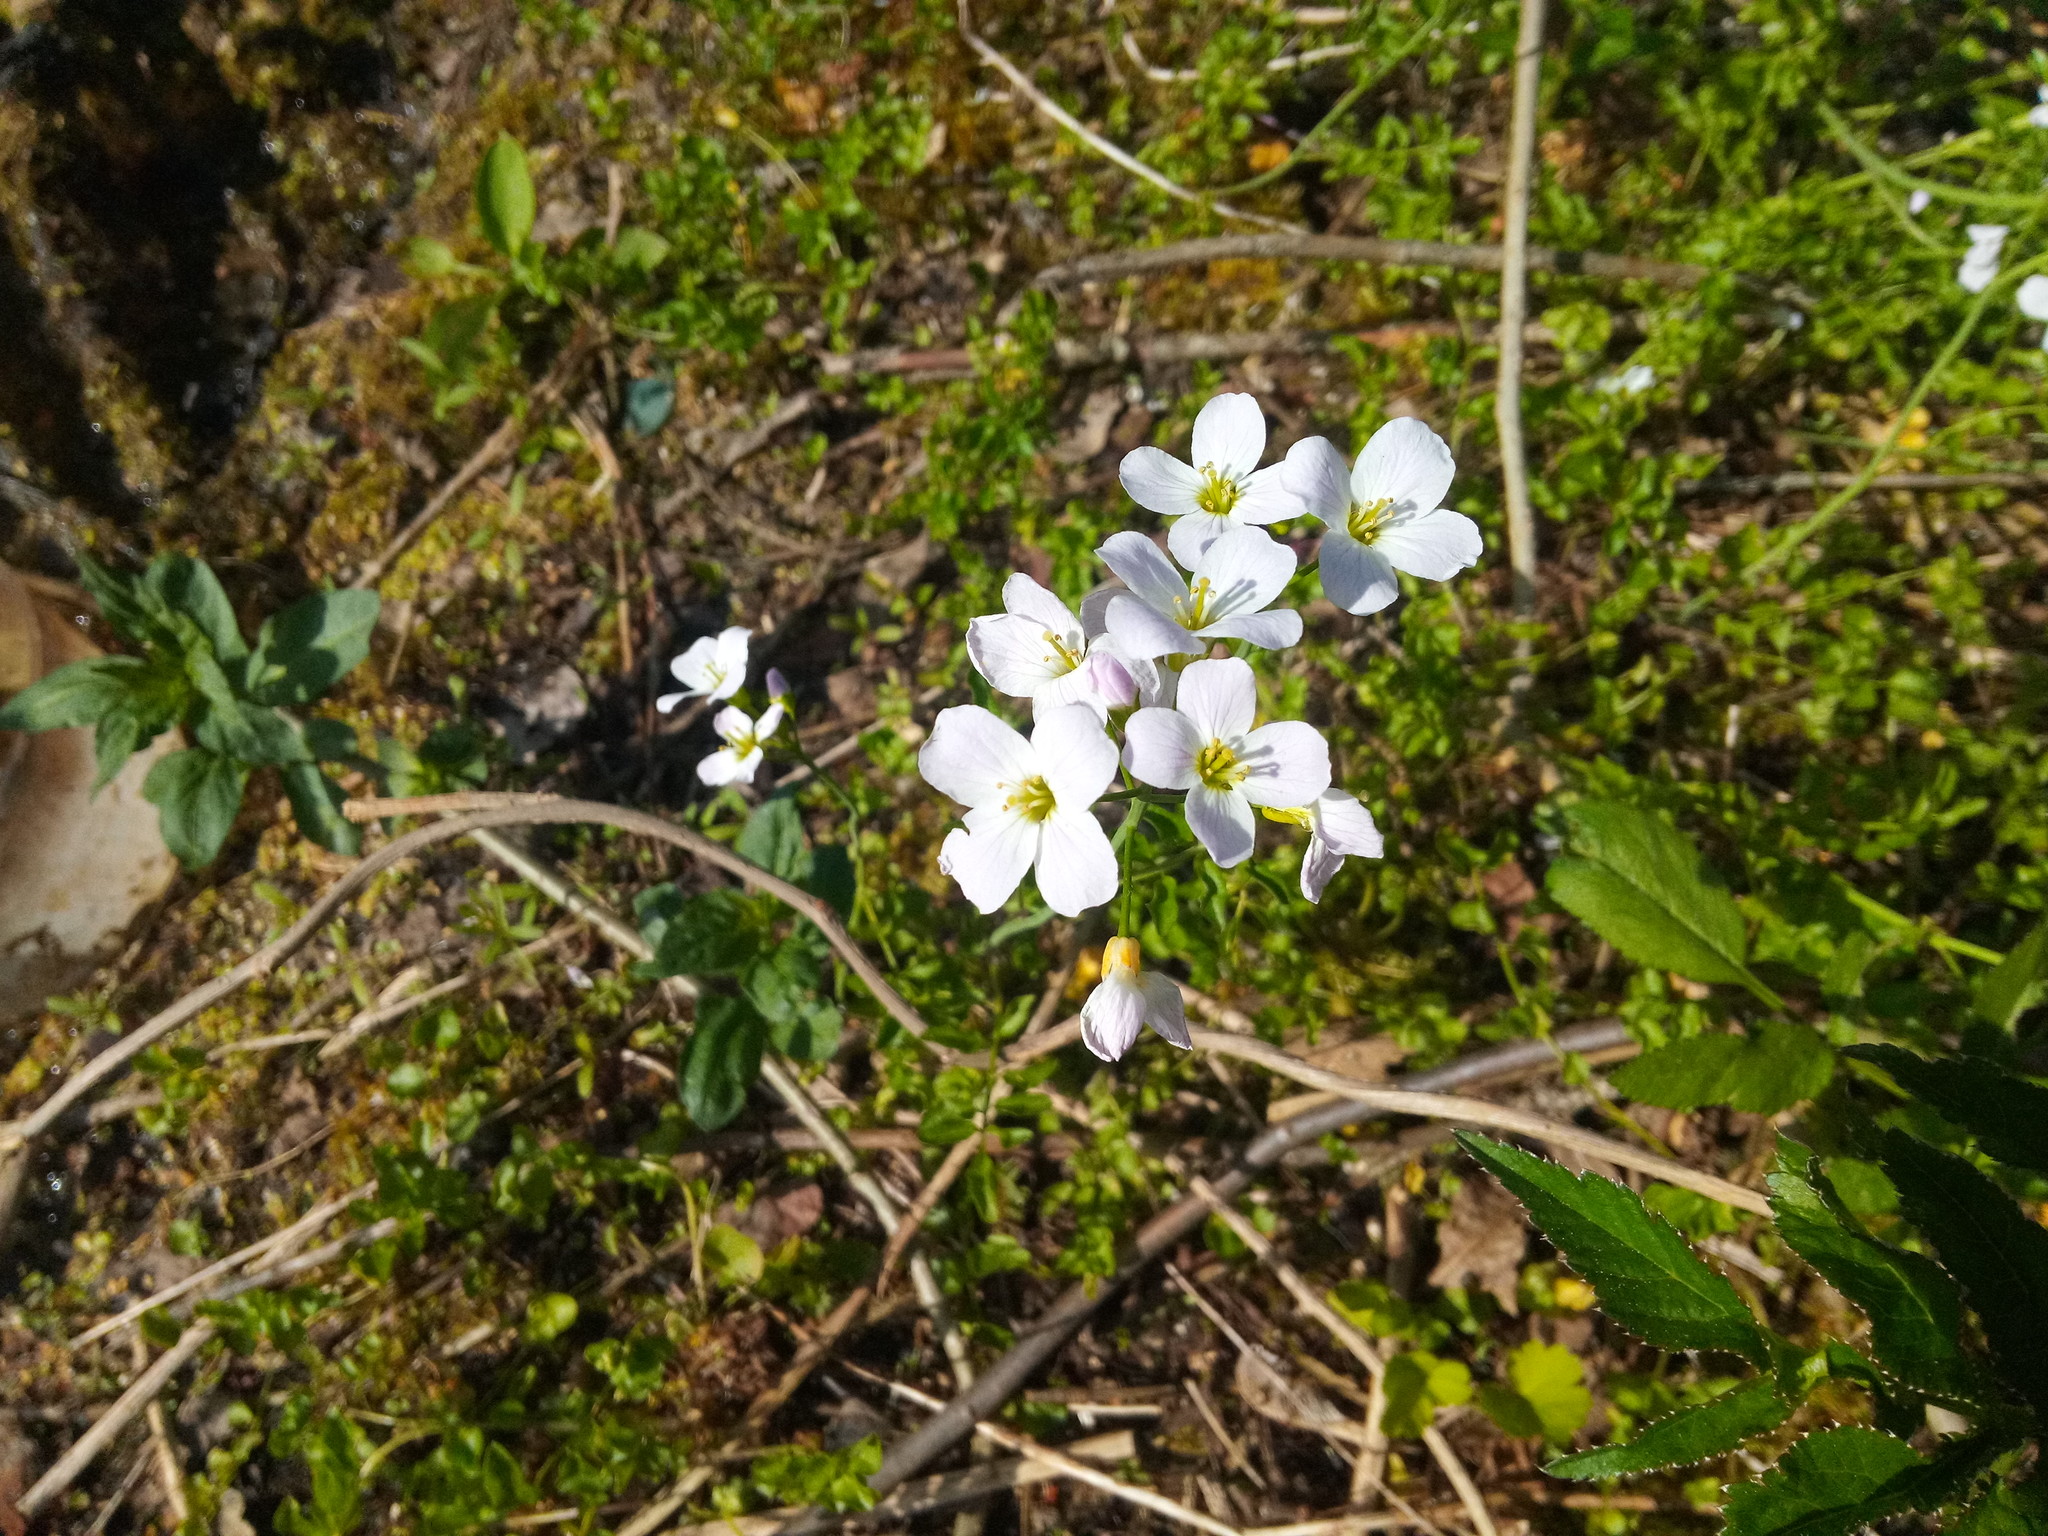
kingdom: Plantae
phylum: Tracheophyta
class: Magnoliopsida
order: Brassicales
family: Brassicaceae
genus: Cardamine
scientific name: Cardamine dentata
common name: Toothed bittercress
